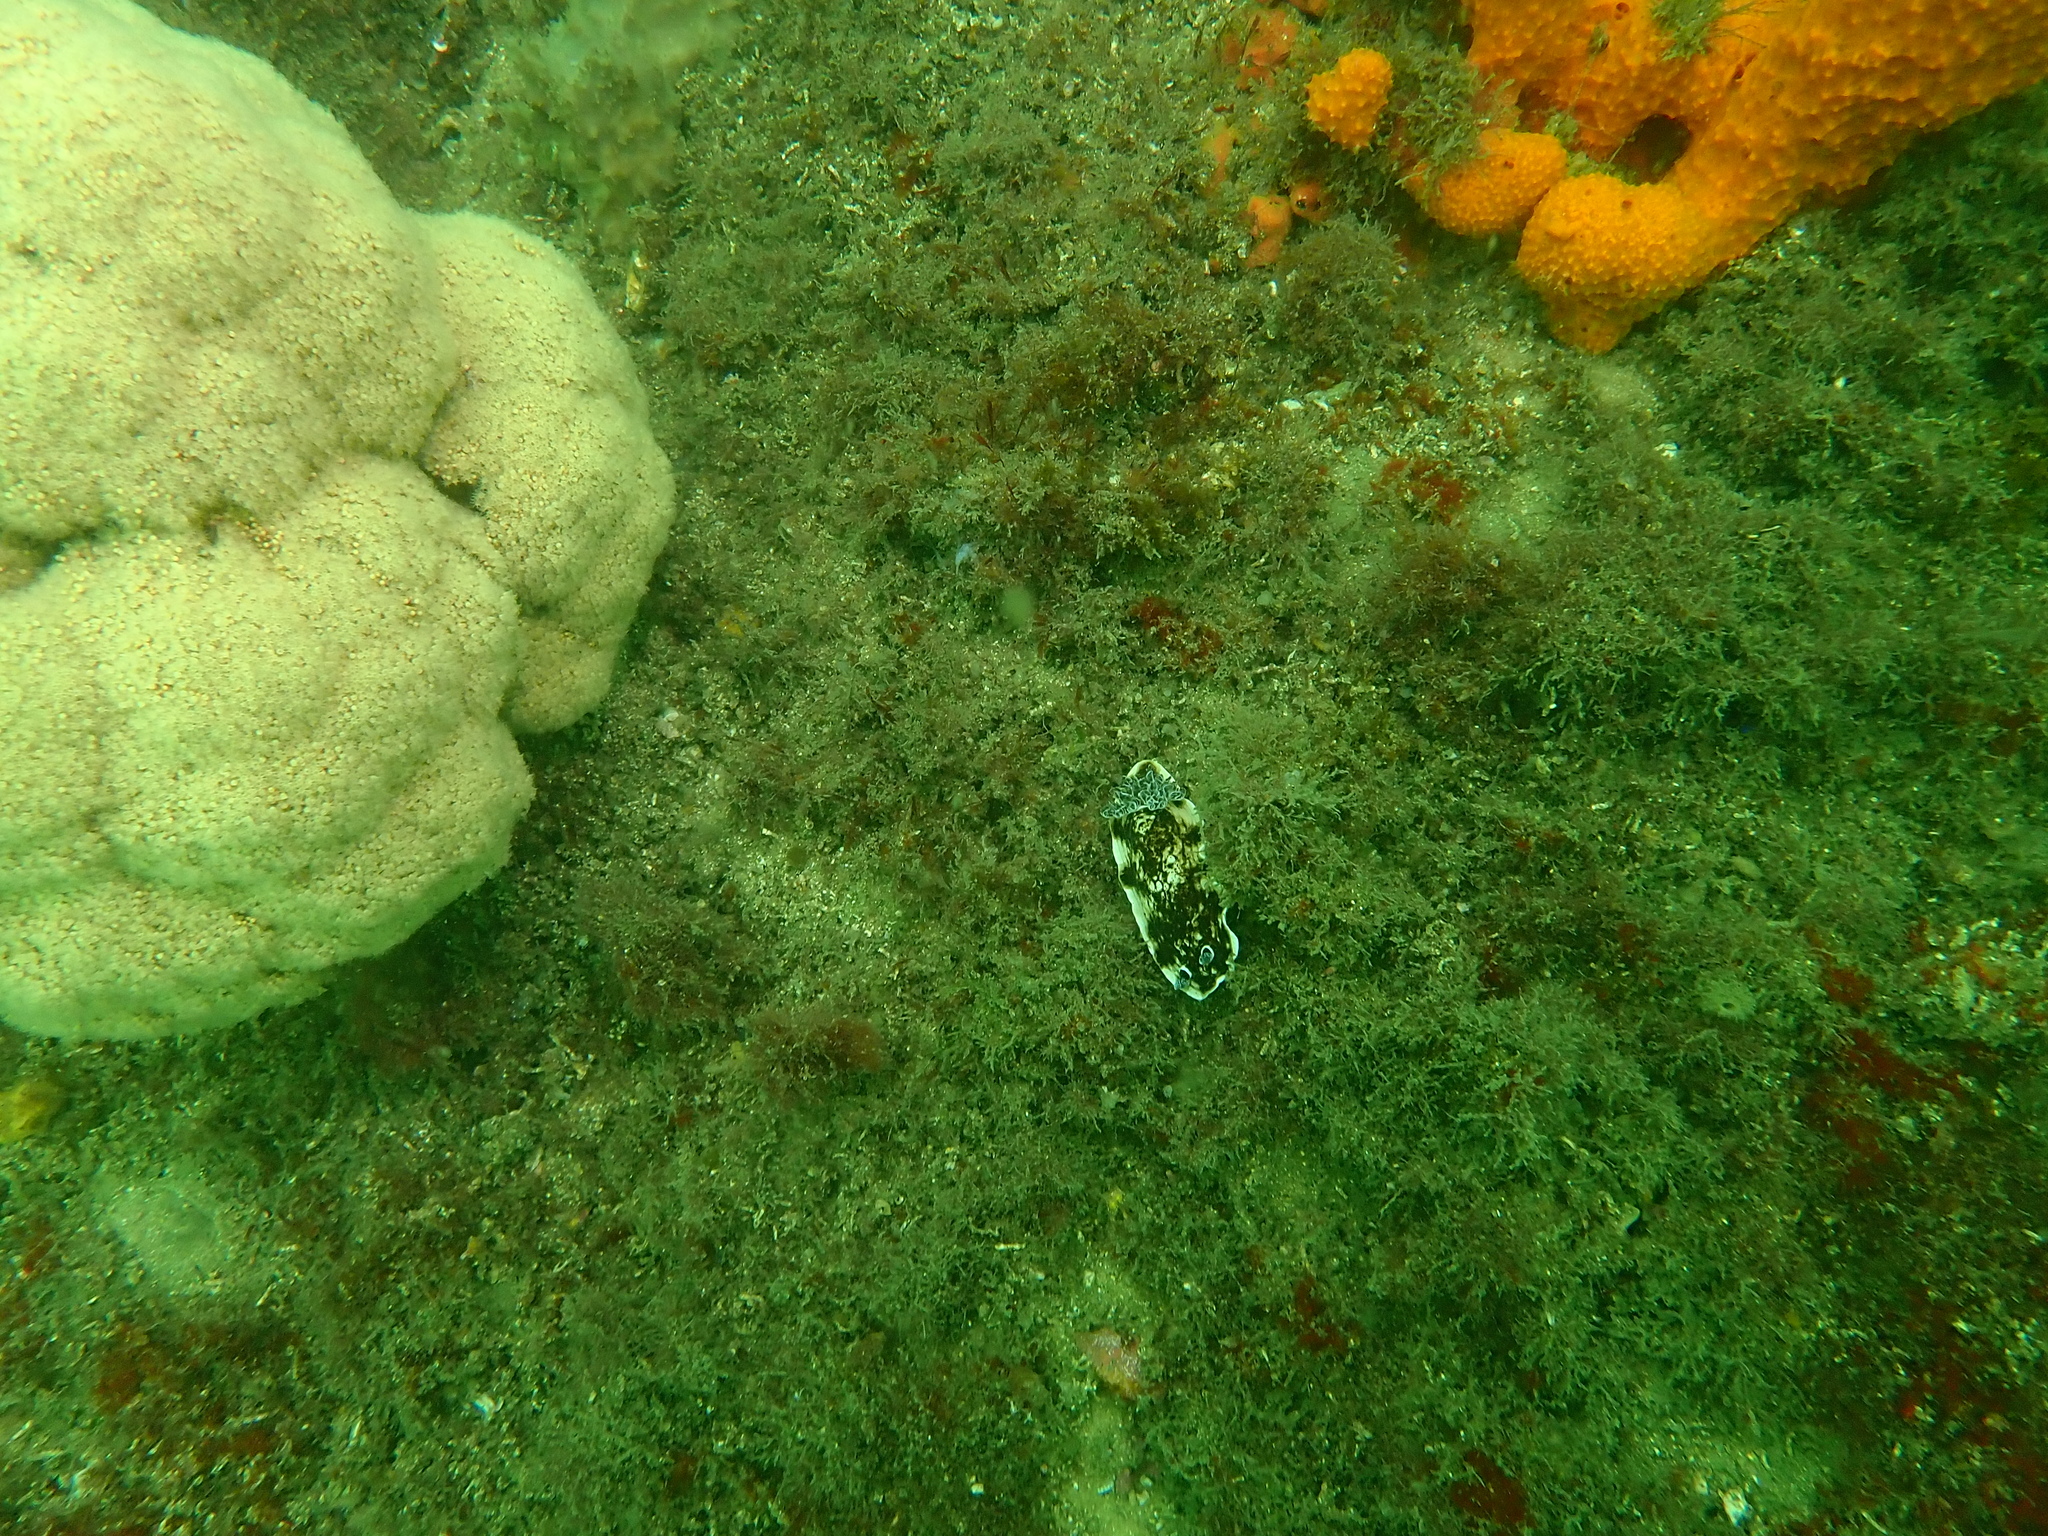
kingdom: Animalia
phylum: Cnidaria
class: Anthozoa
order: Malacalcyonacea
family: Nephtheidae
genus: Dendronephthya
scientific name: Dendronephthya australis
